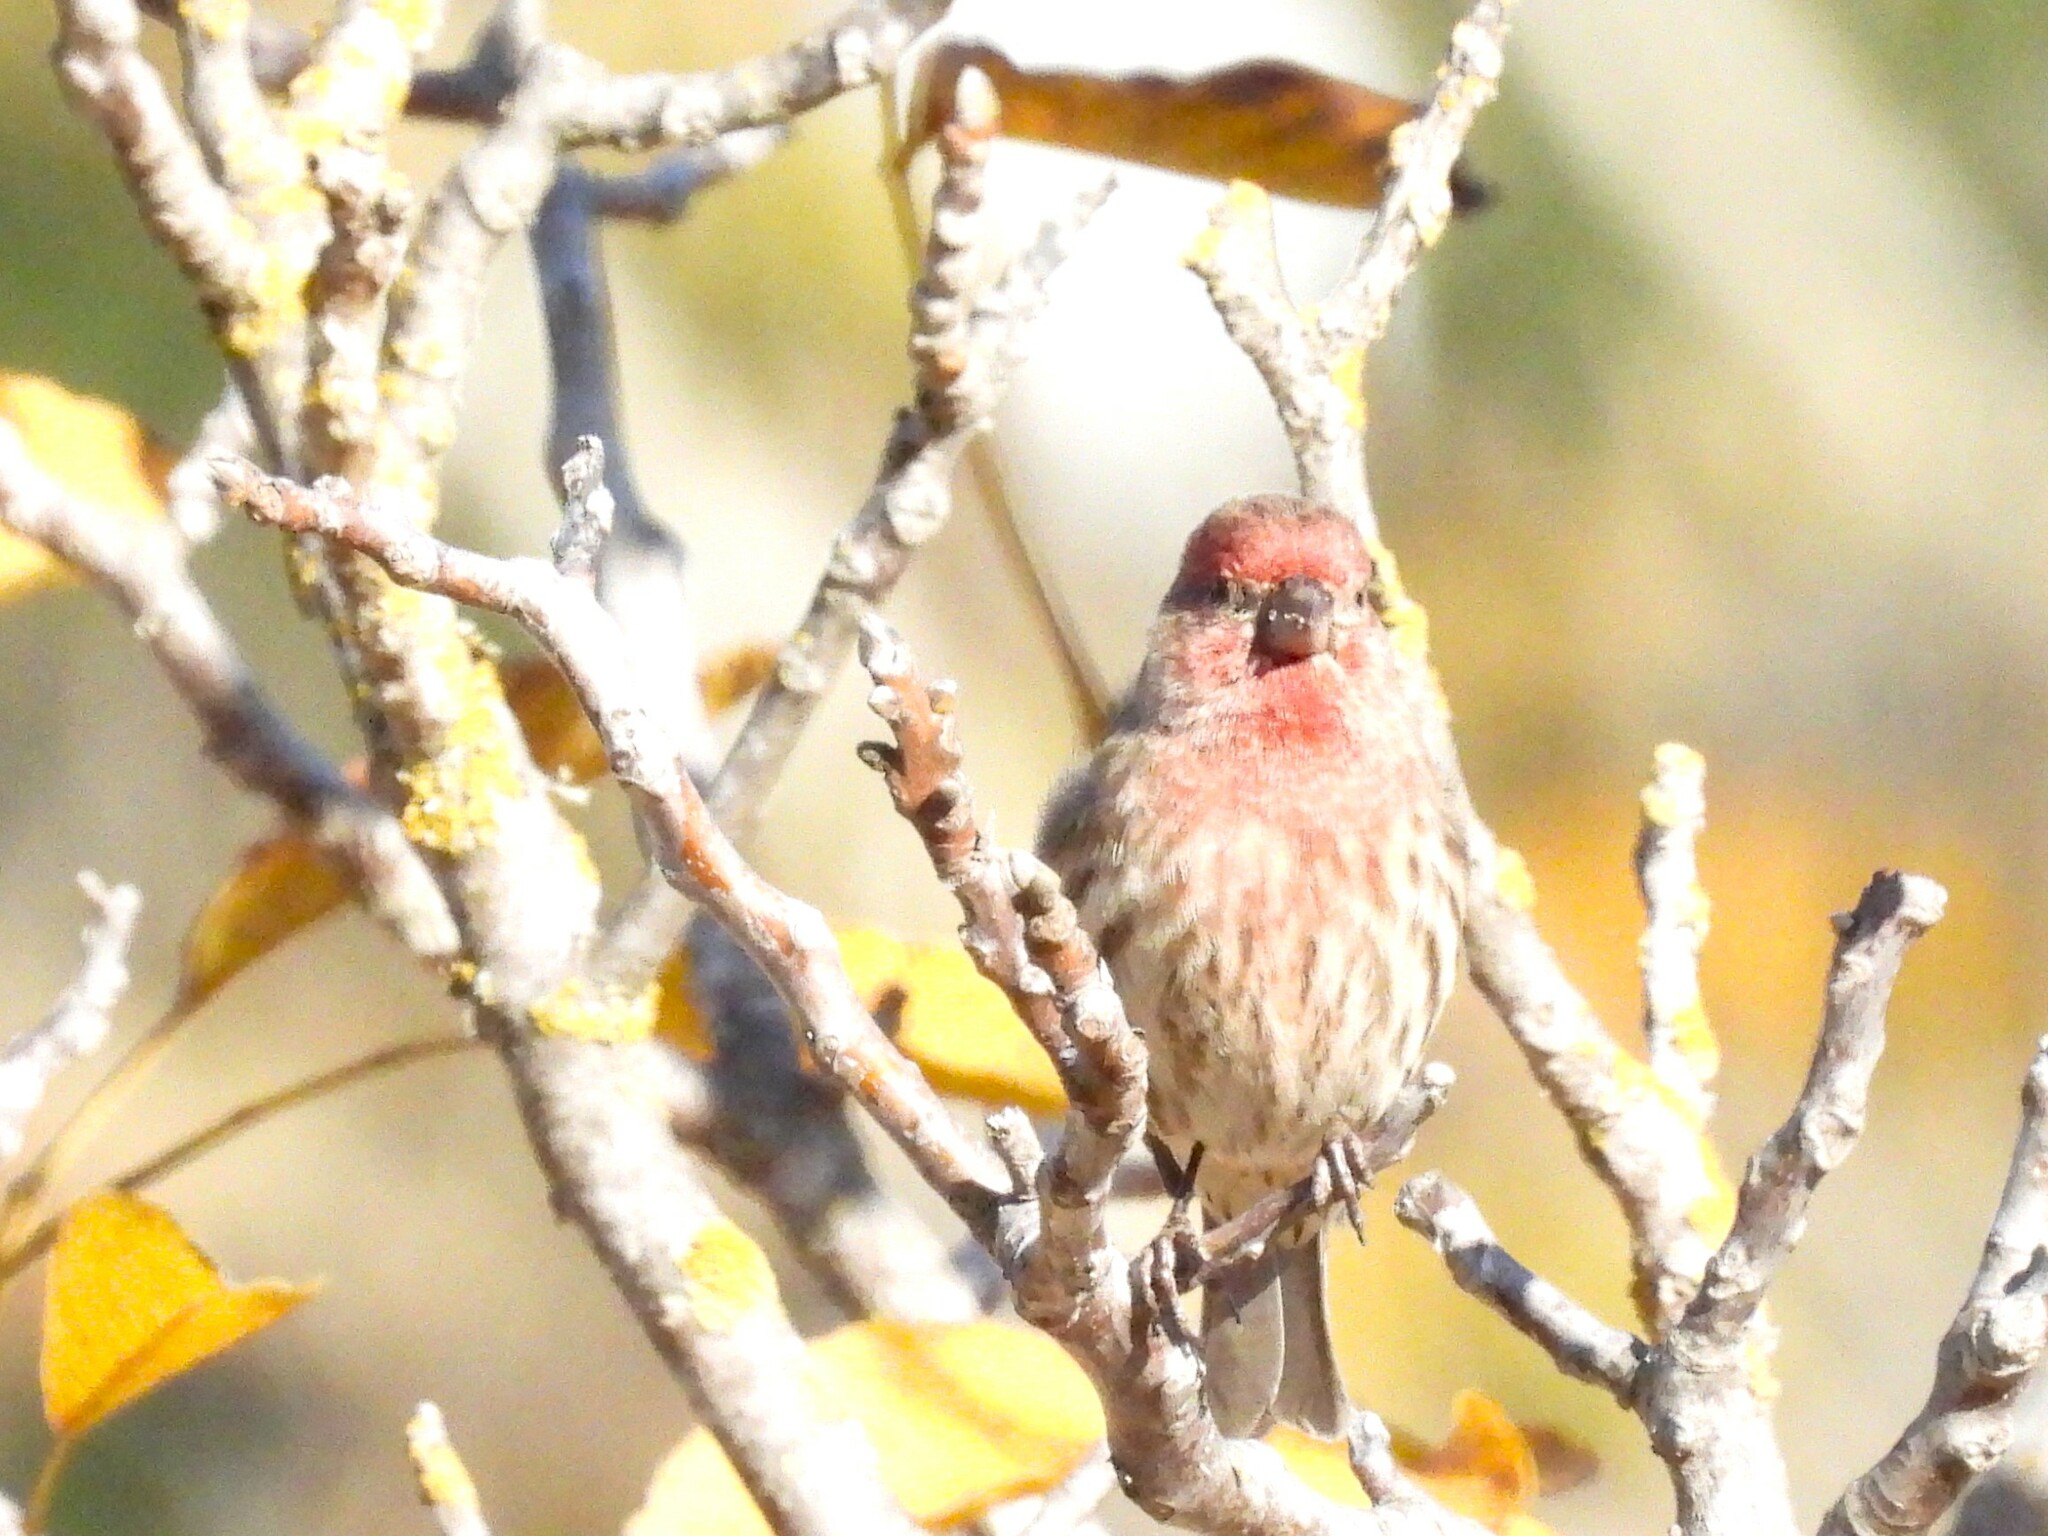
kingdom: Animalia
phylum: Chordata
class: Aves
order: Passeriformes
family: Fringillidae
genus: Haemorhous
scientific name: Haemorhous mexicanus
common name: House finch
